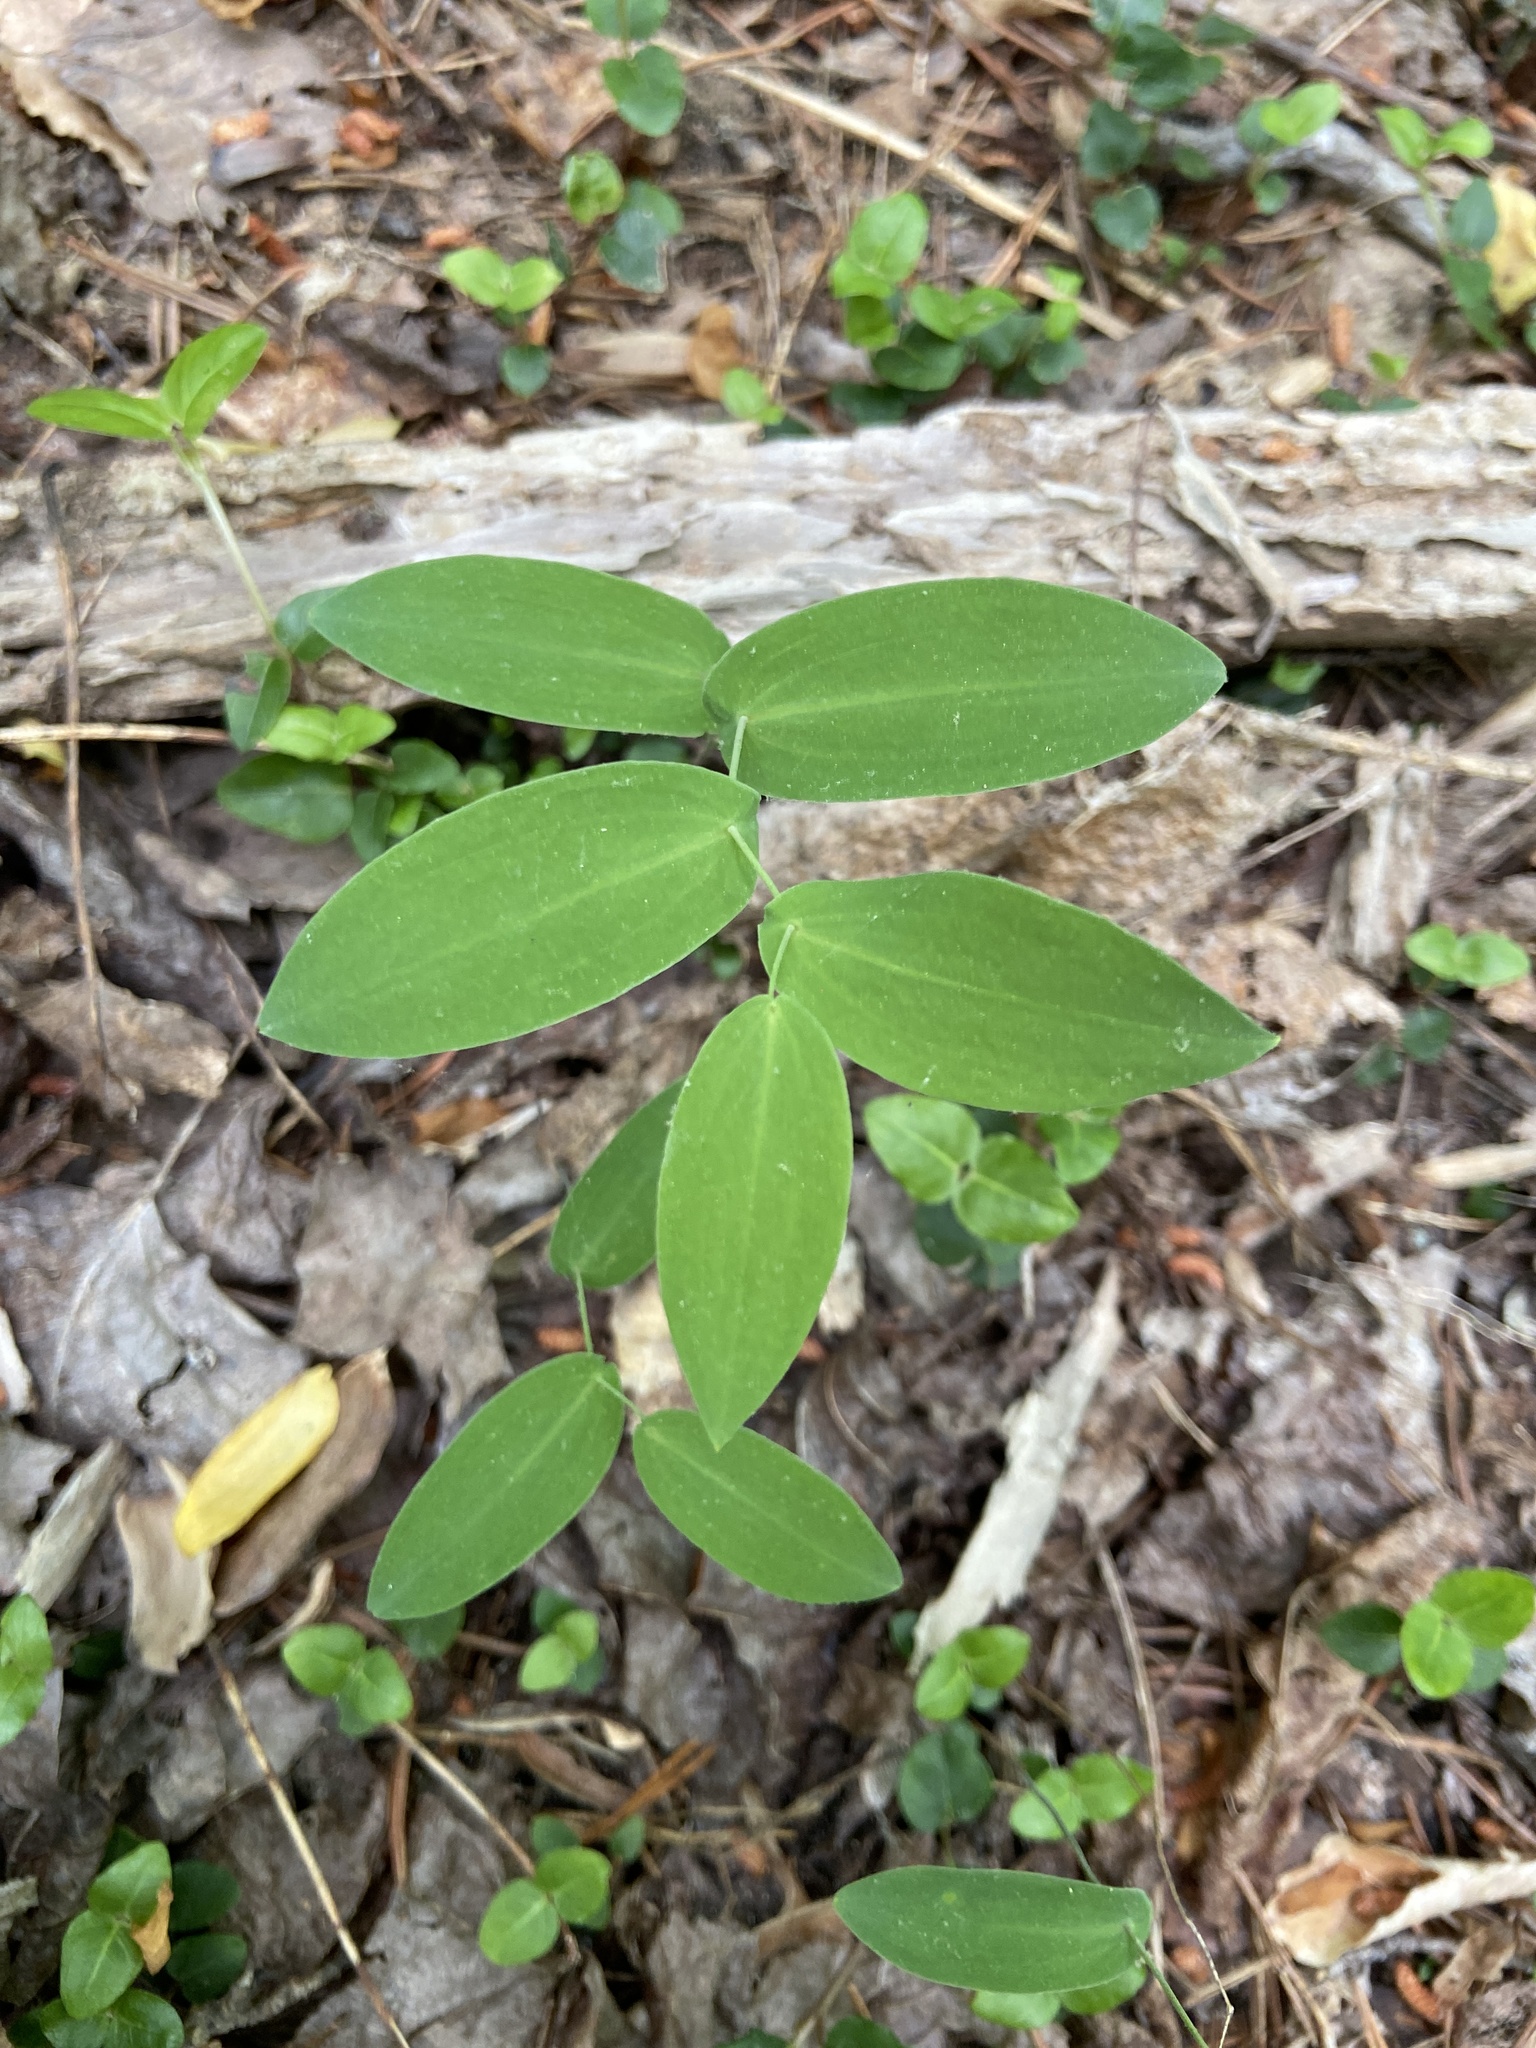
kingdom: Plantae
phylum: Tracheophyta
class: Liliopsida
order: Liliales
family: Colchicaceae
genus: Uvularia
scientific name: Uvularia perfoliata
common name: Perfoliate bellwort
